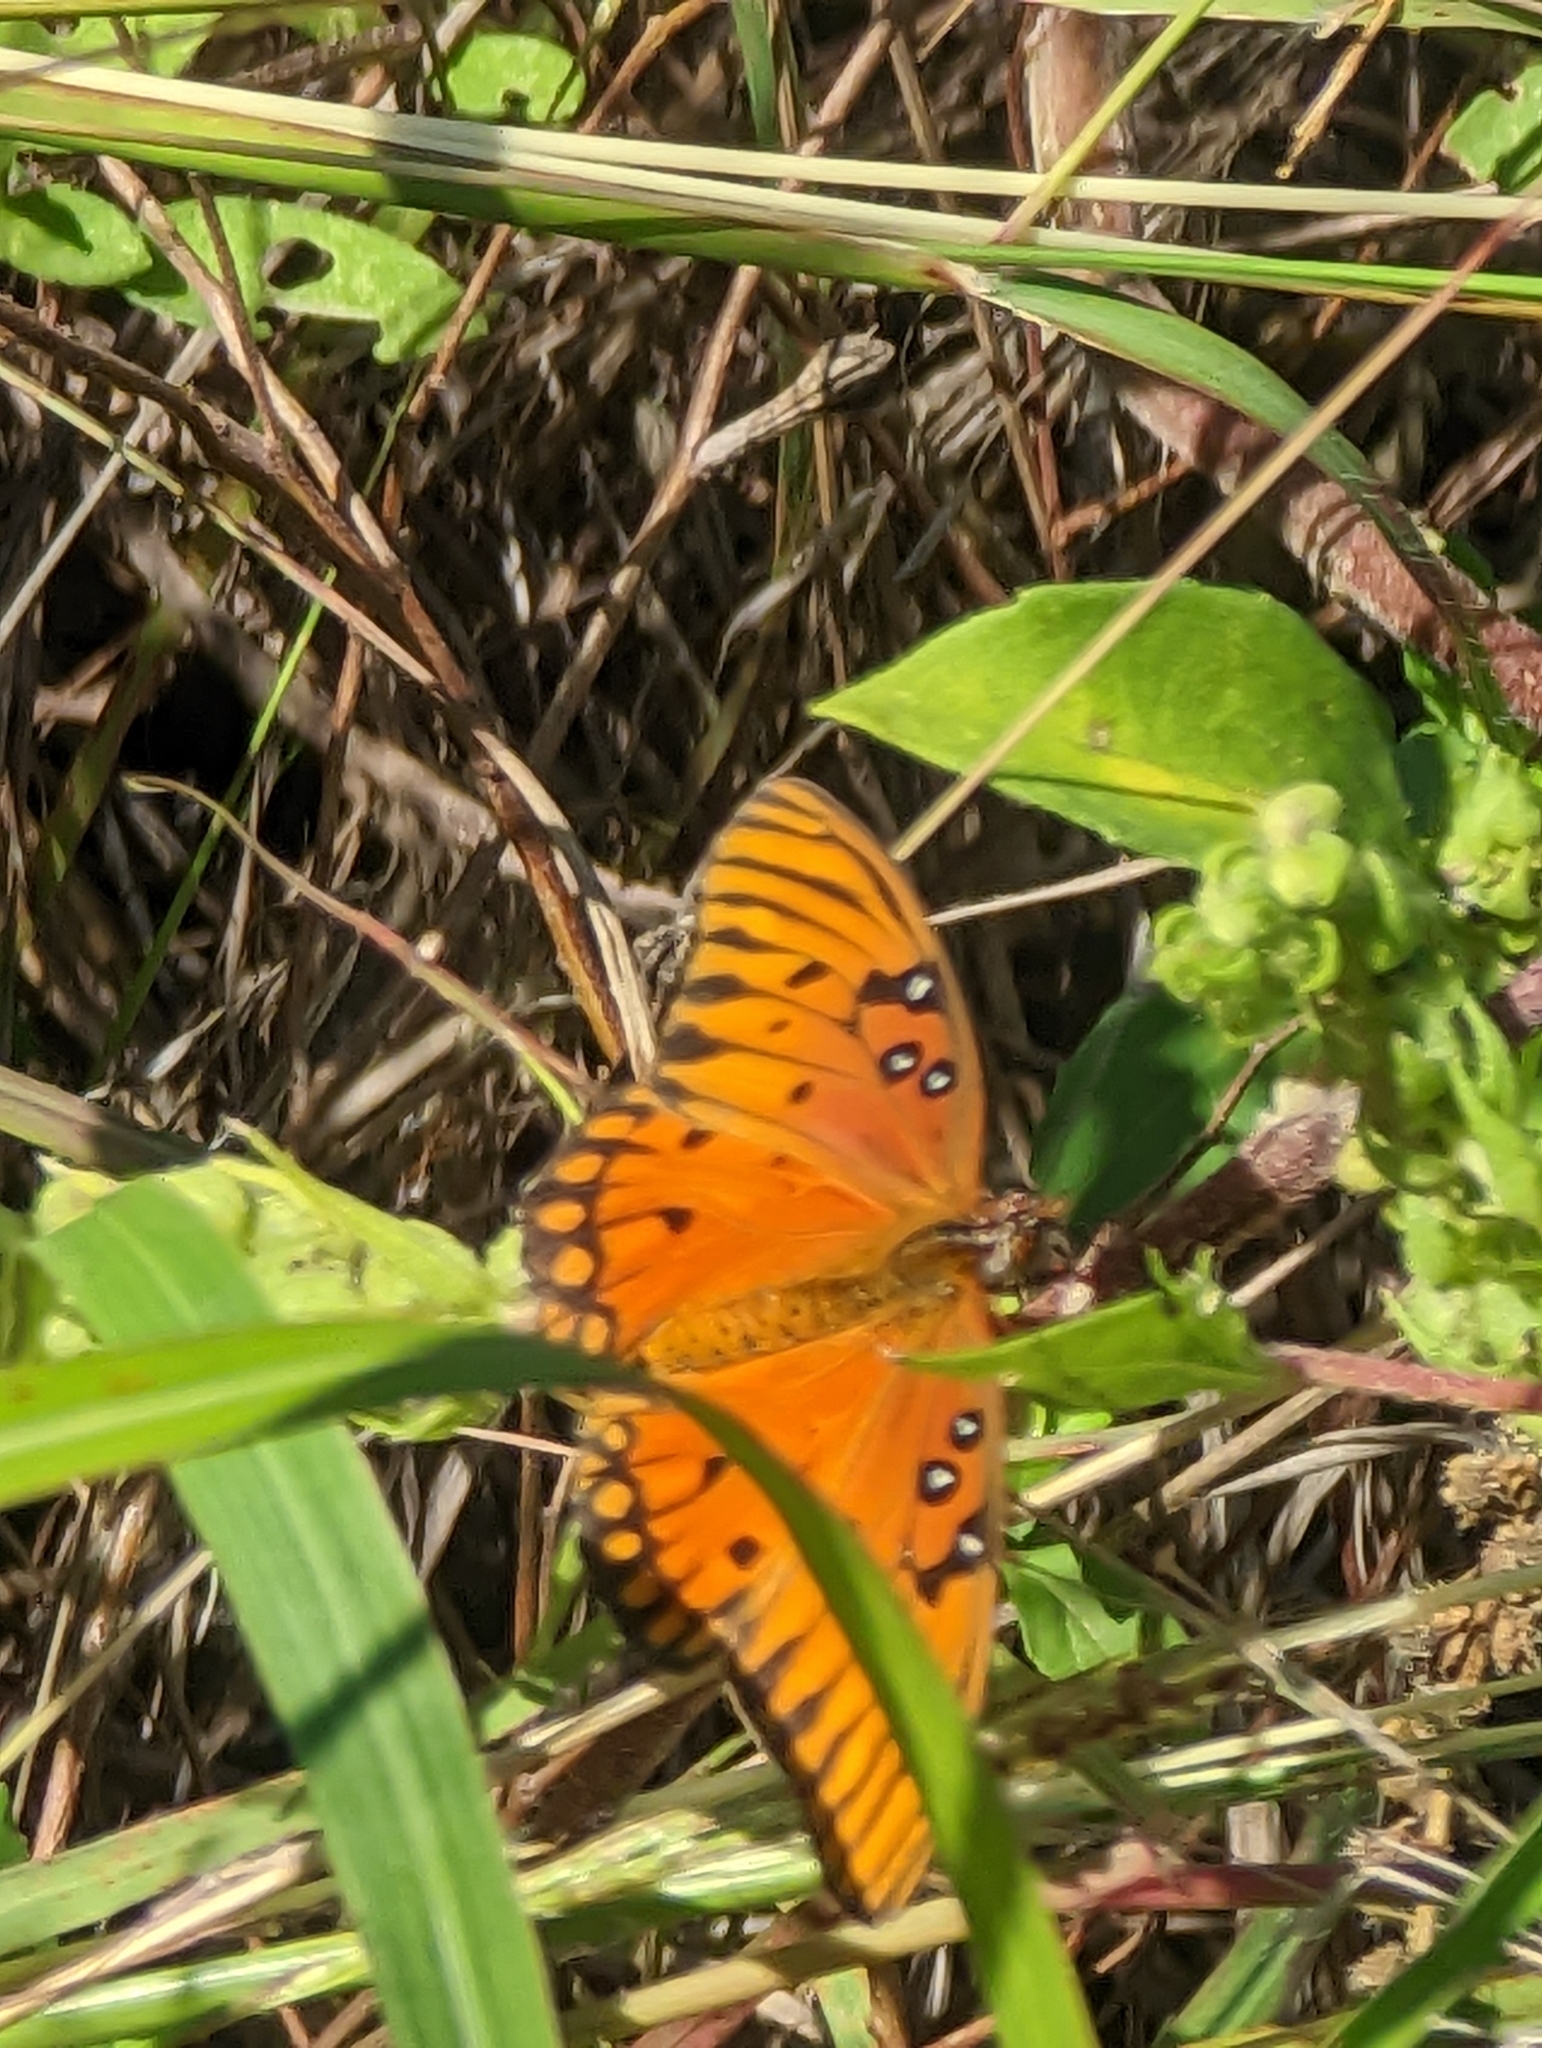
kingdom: Animalia
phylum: Arthropoda
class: Insecta
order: Lepidoptera
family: Nymphalidae
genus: Dione
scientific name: Dione vanillae
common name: Gulf fritillary
